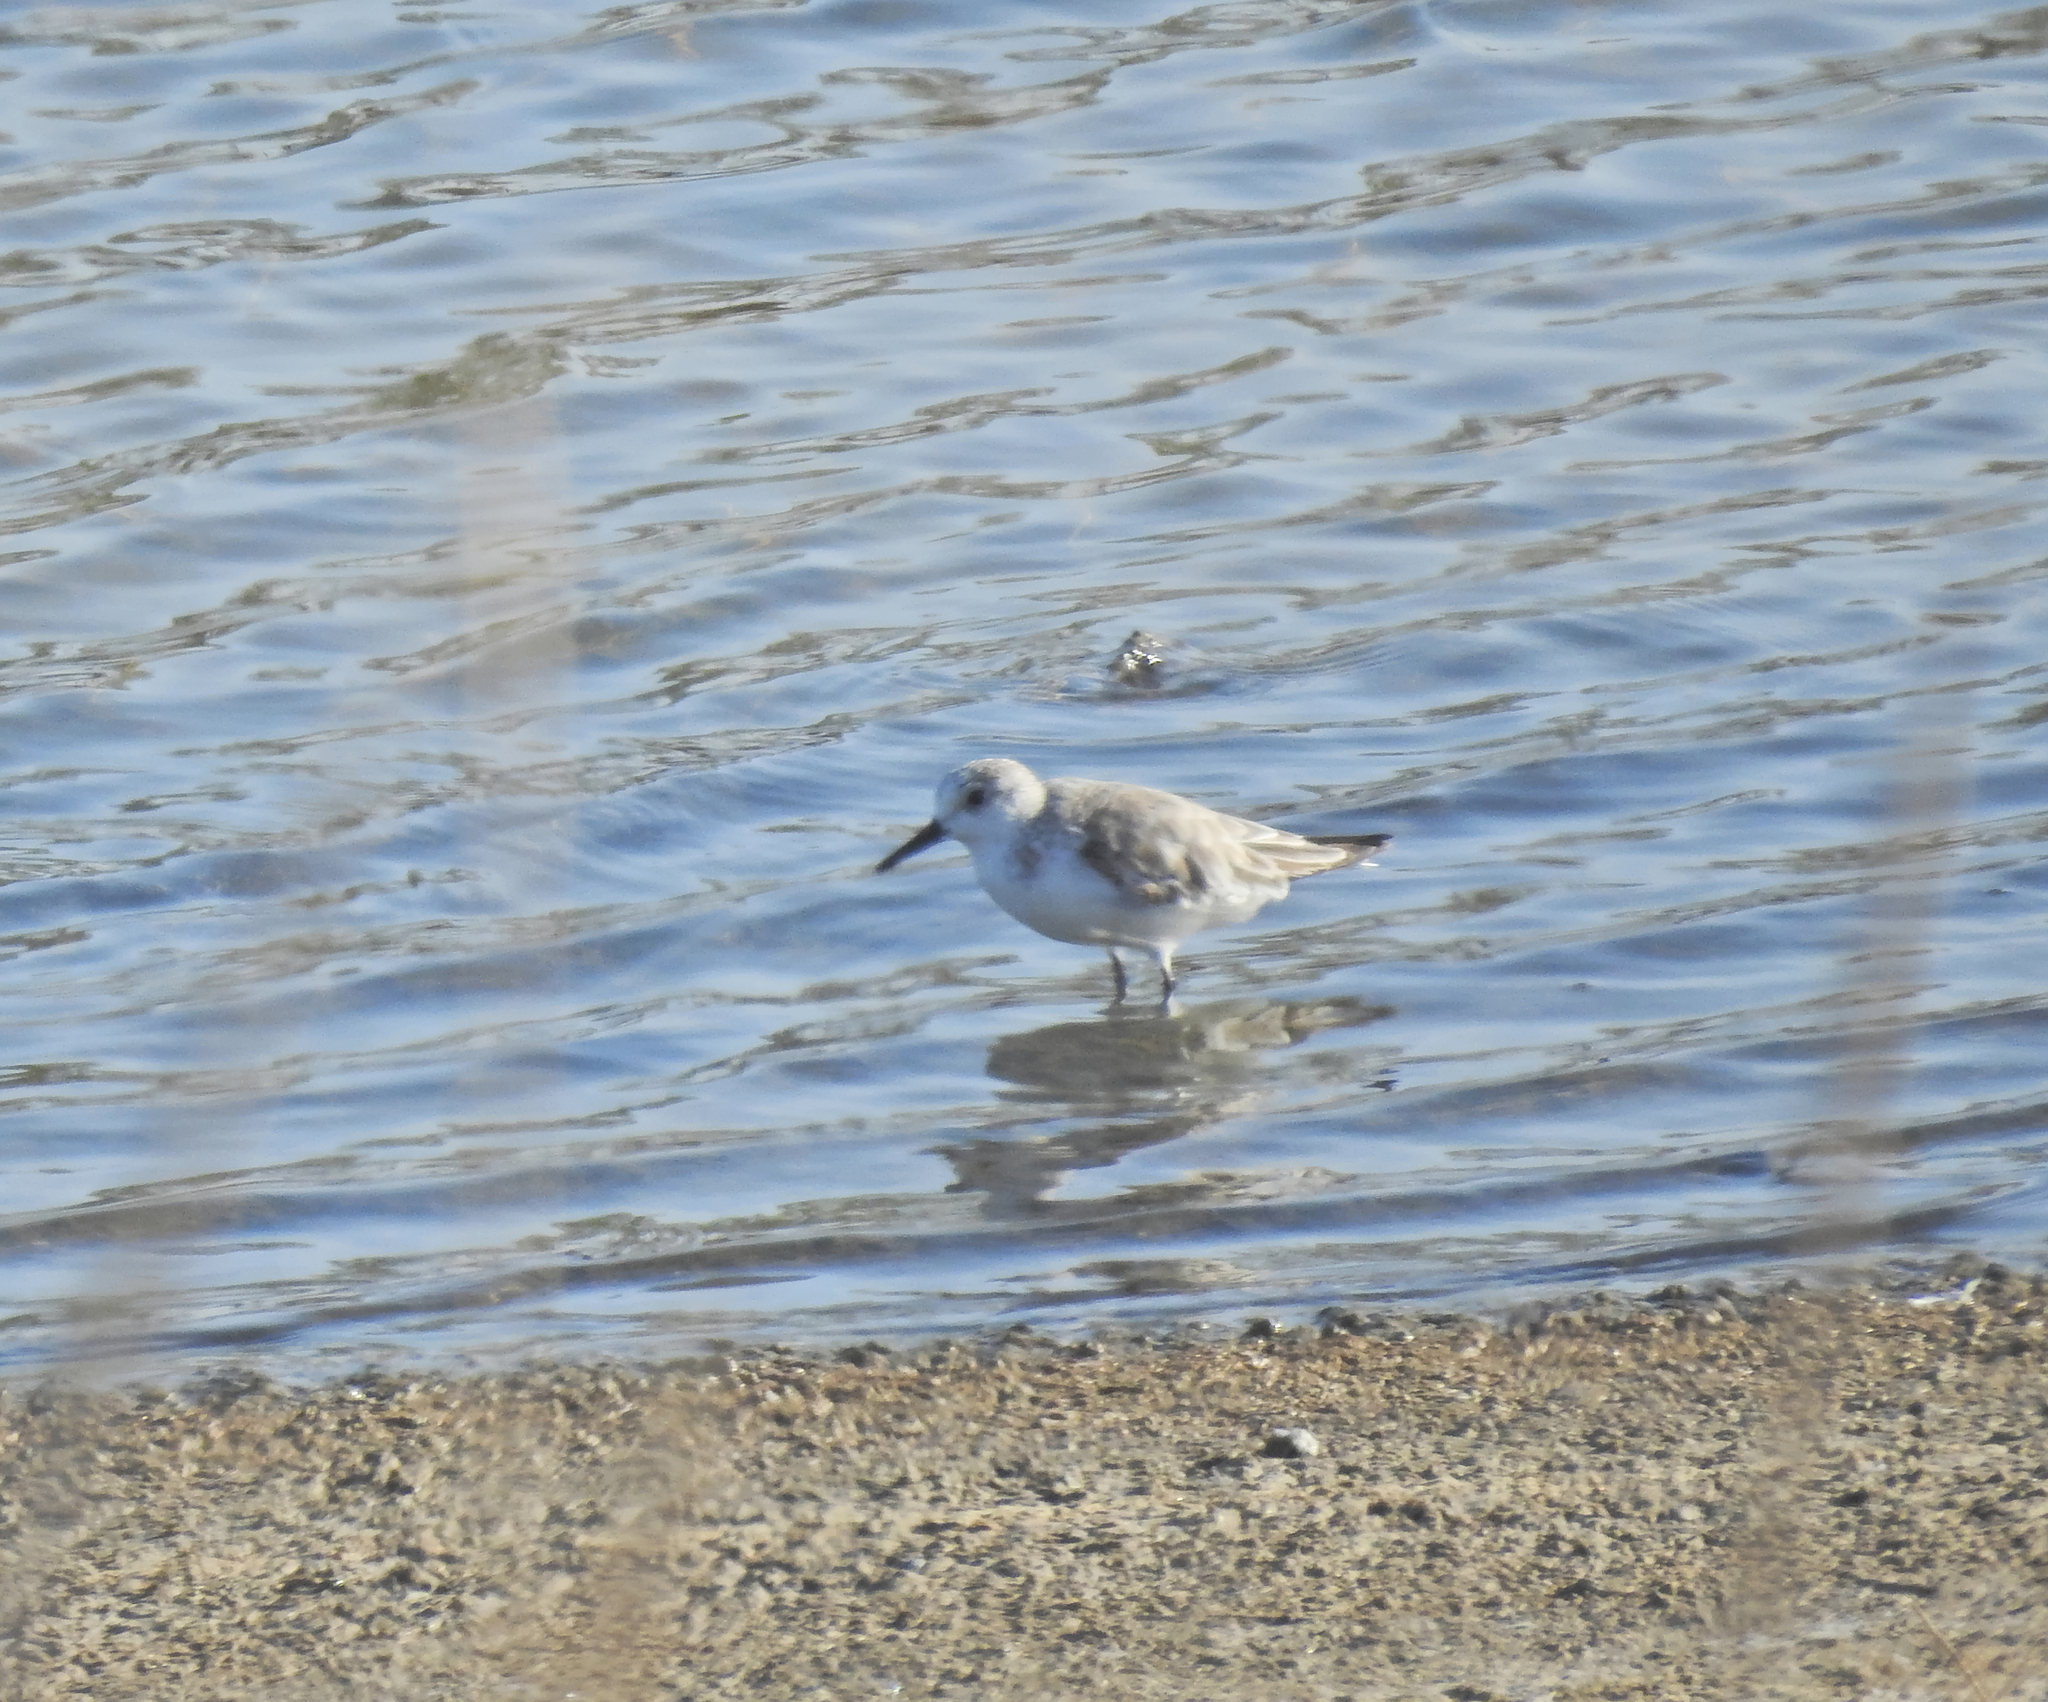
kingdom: Animalia
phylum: Chordata
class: Aves
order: Charadriiformes
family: Scolopacidae
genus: Calidris
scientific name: Calidris alba
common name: Sanderling
